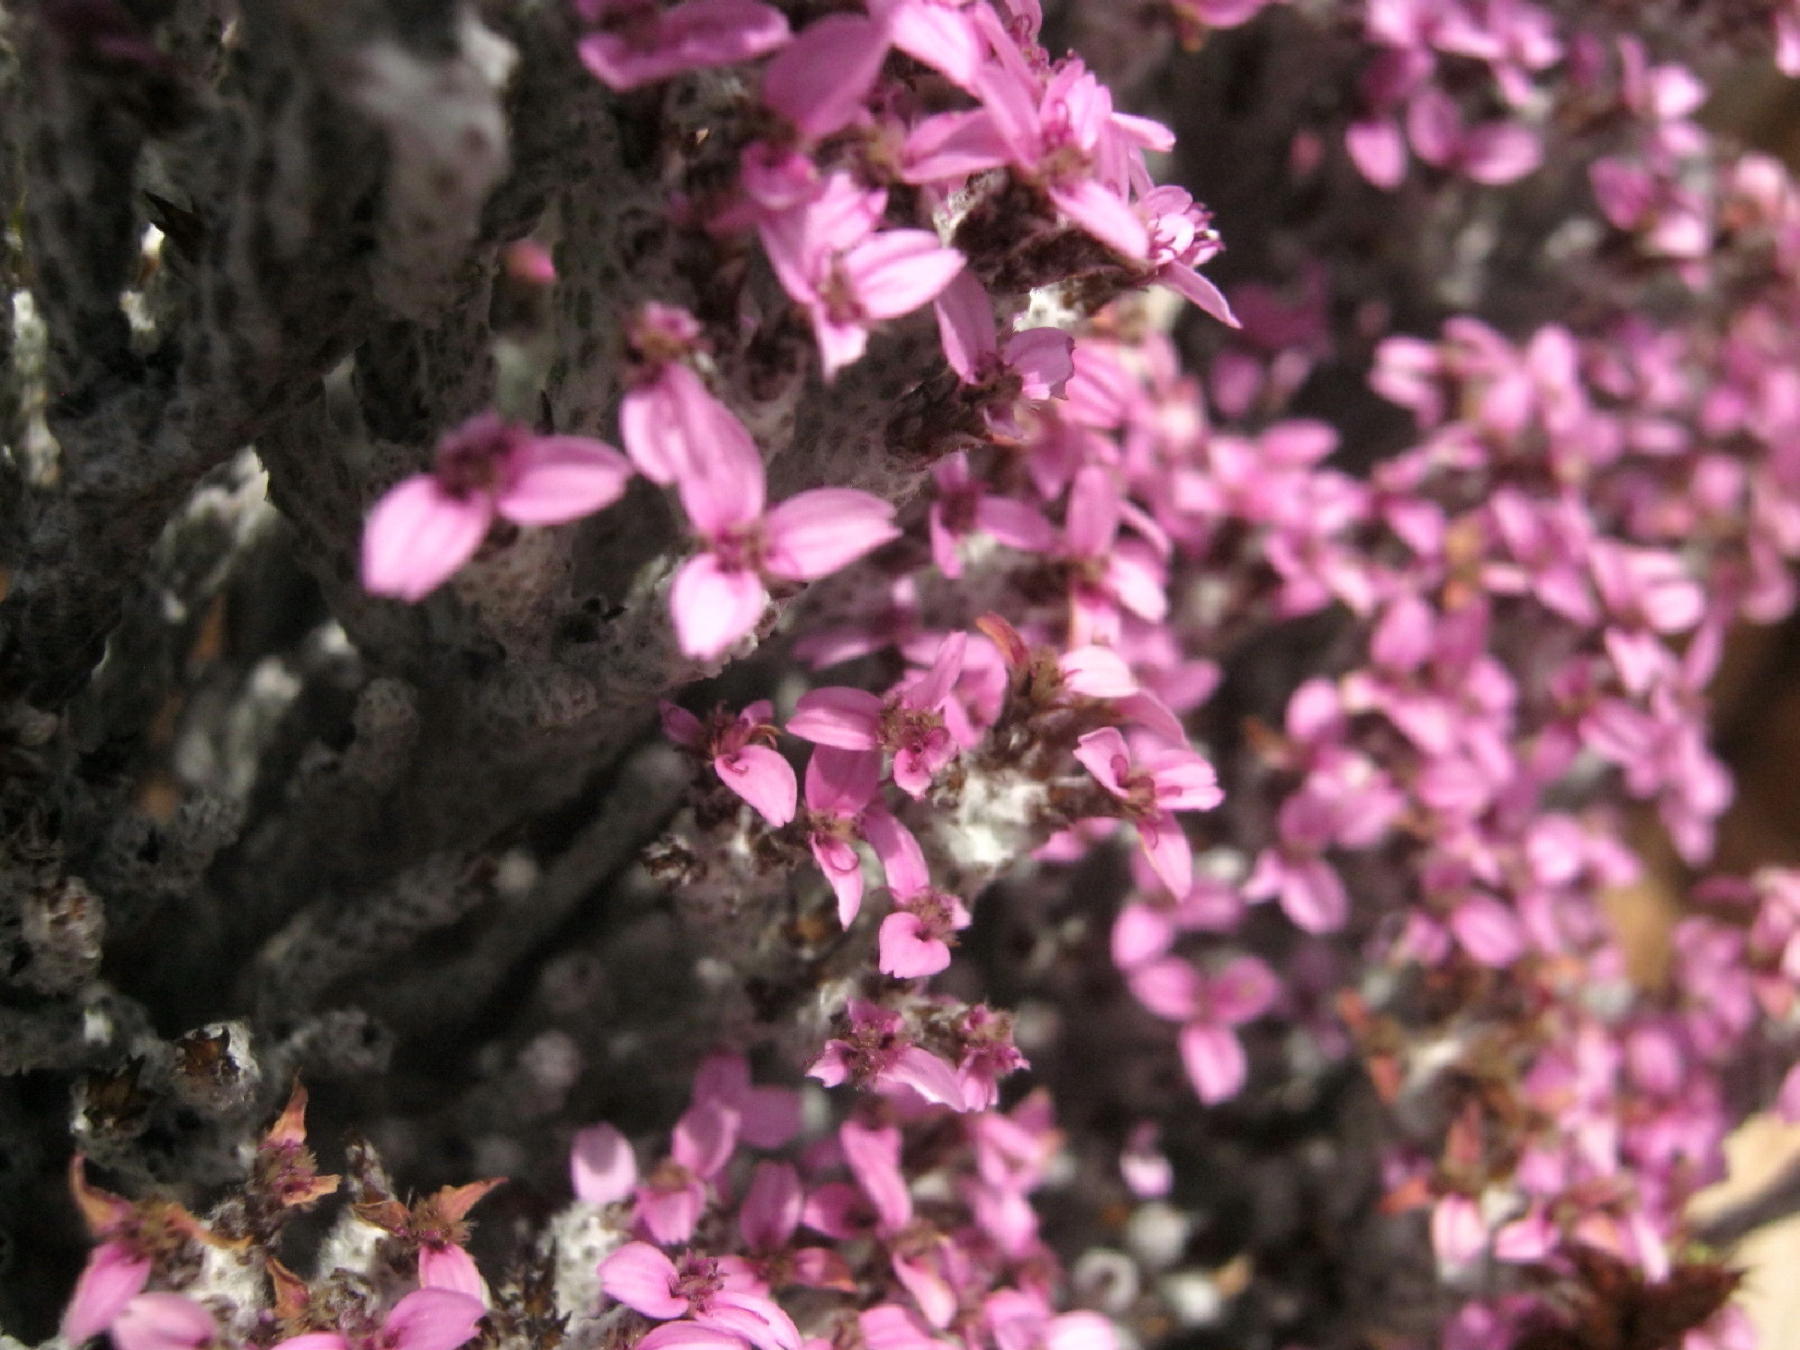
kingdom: Plantae
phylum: Tracheophyta
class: Magnoliopsida
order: Asterales
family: Asteraceae
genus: Disparago
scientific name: Disparago kolbei
